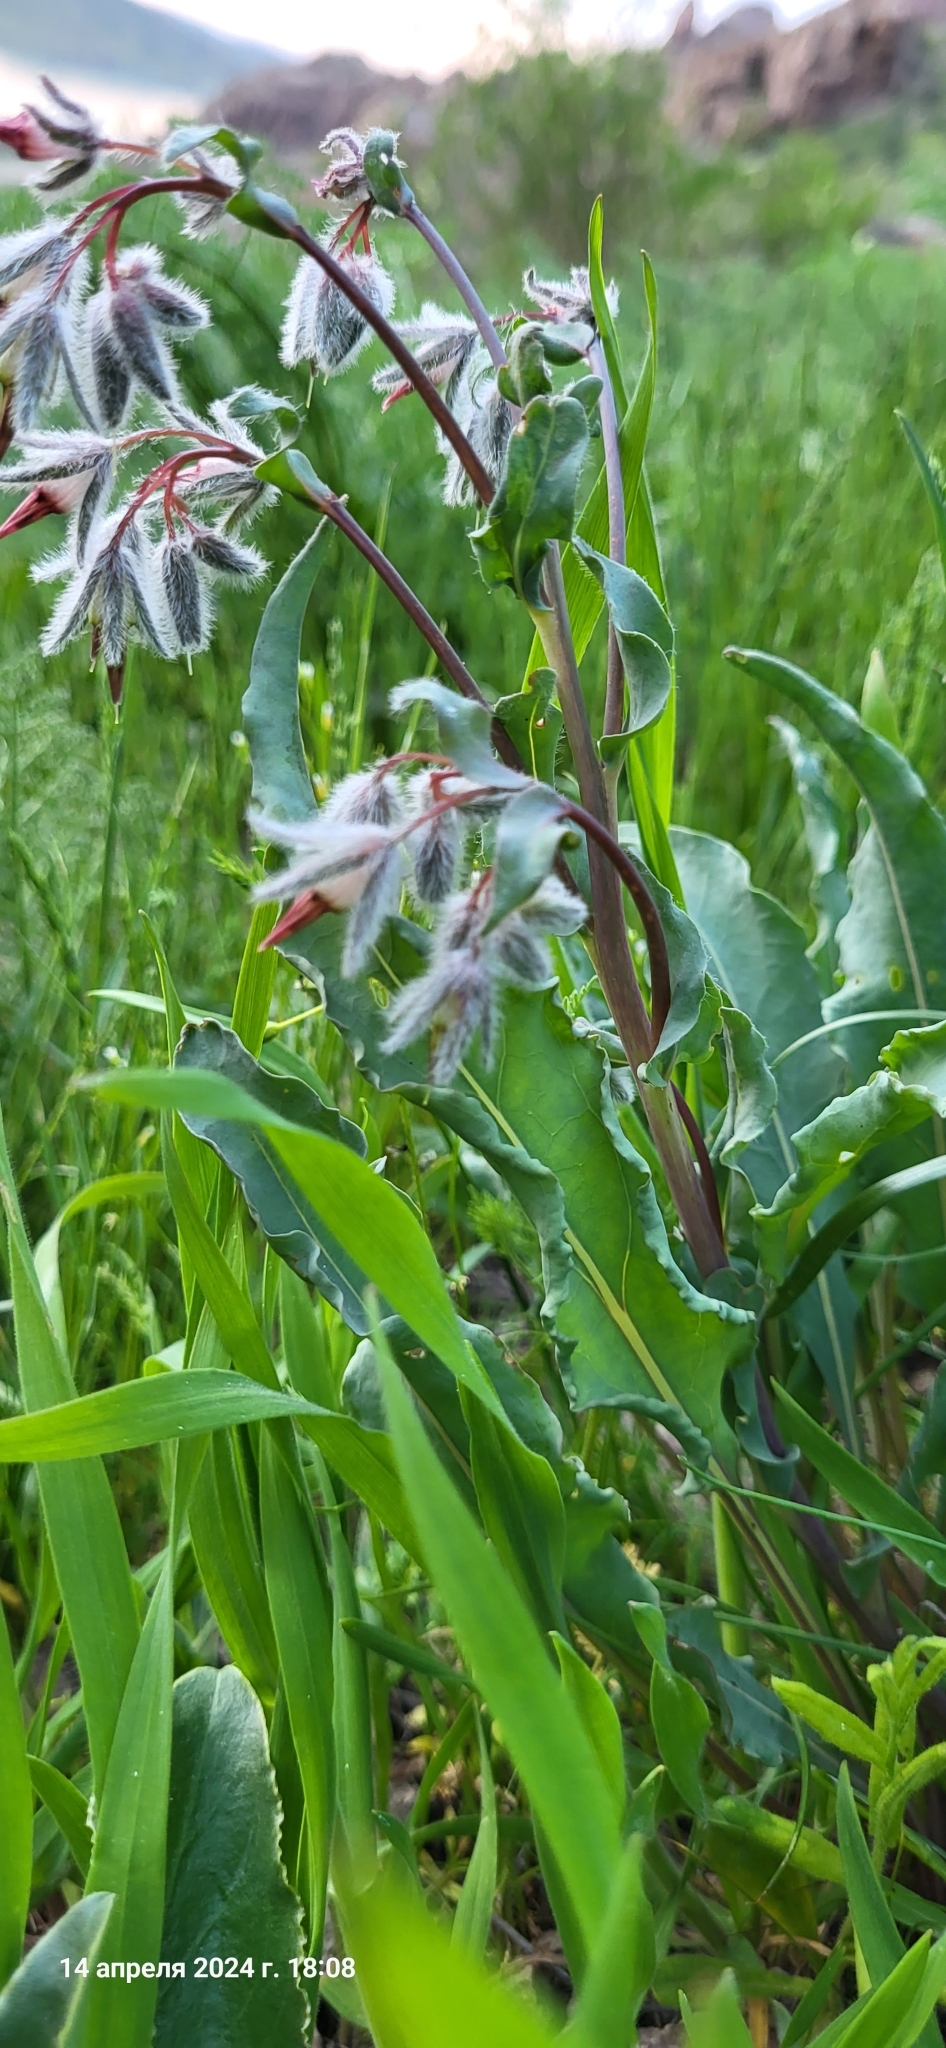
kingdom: Plantae
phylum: Tracheophyta
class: Magnoliopsida
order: Boraginales
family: Boraginaceae
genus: Rindera
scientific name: Rindera tetraspis
